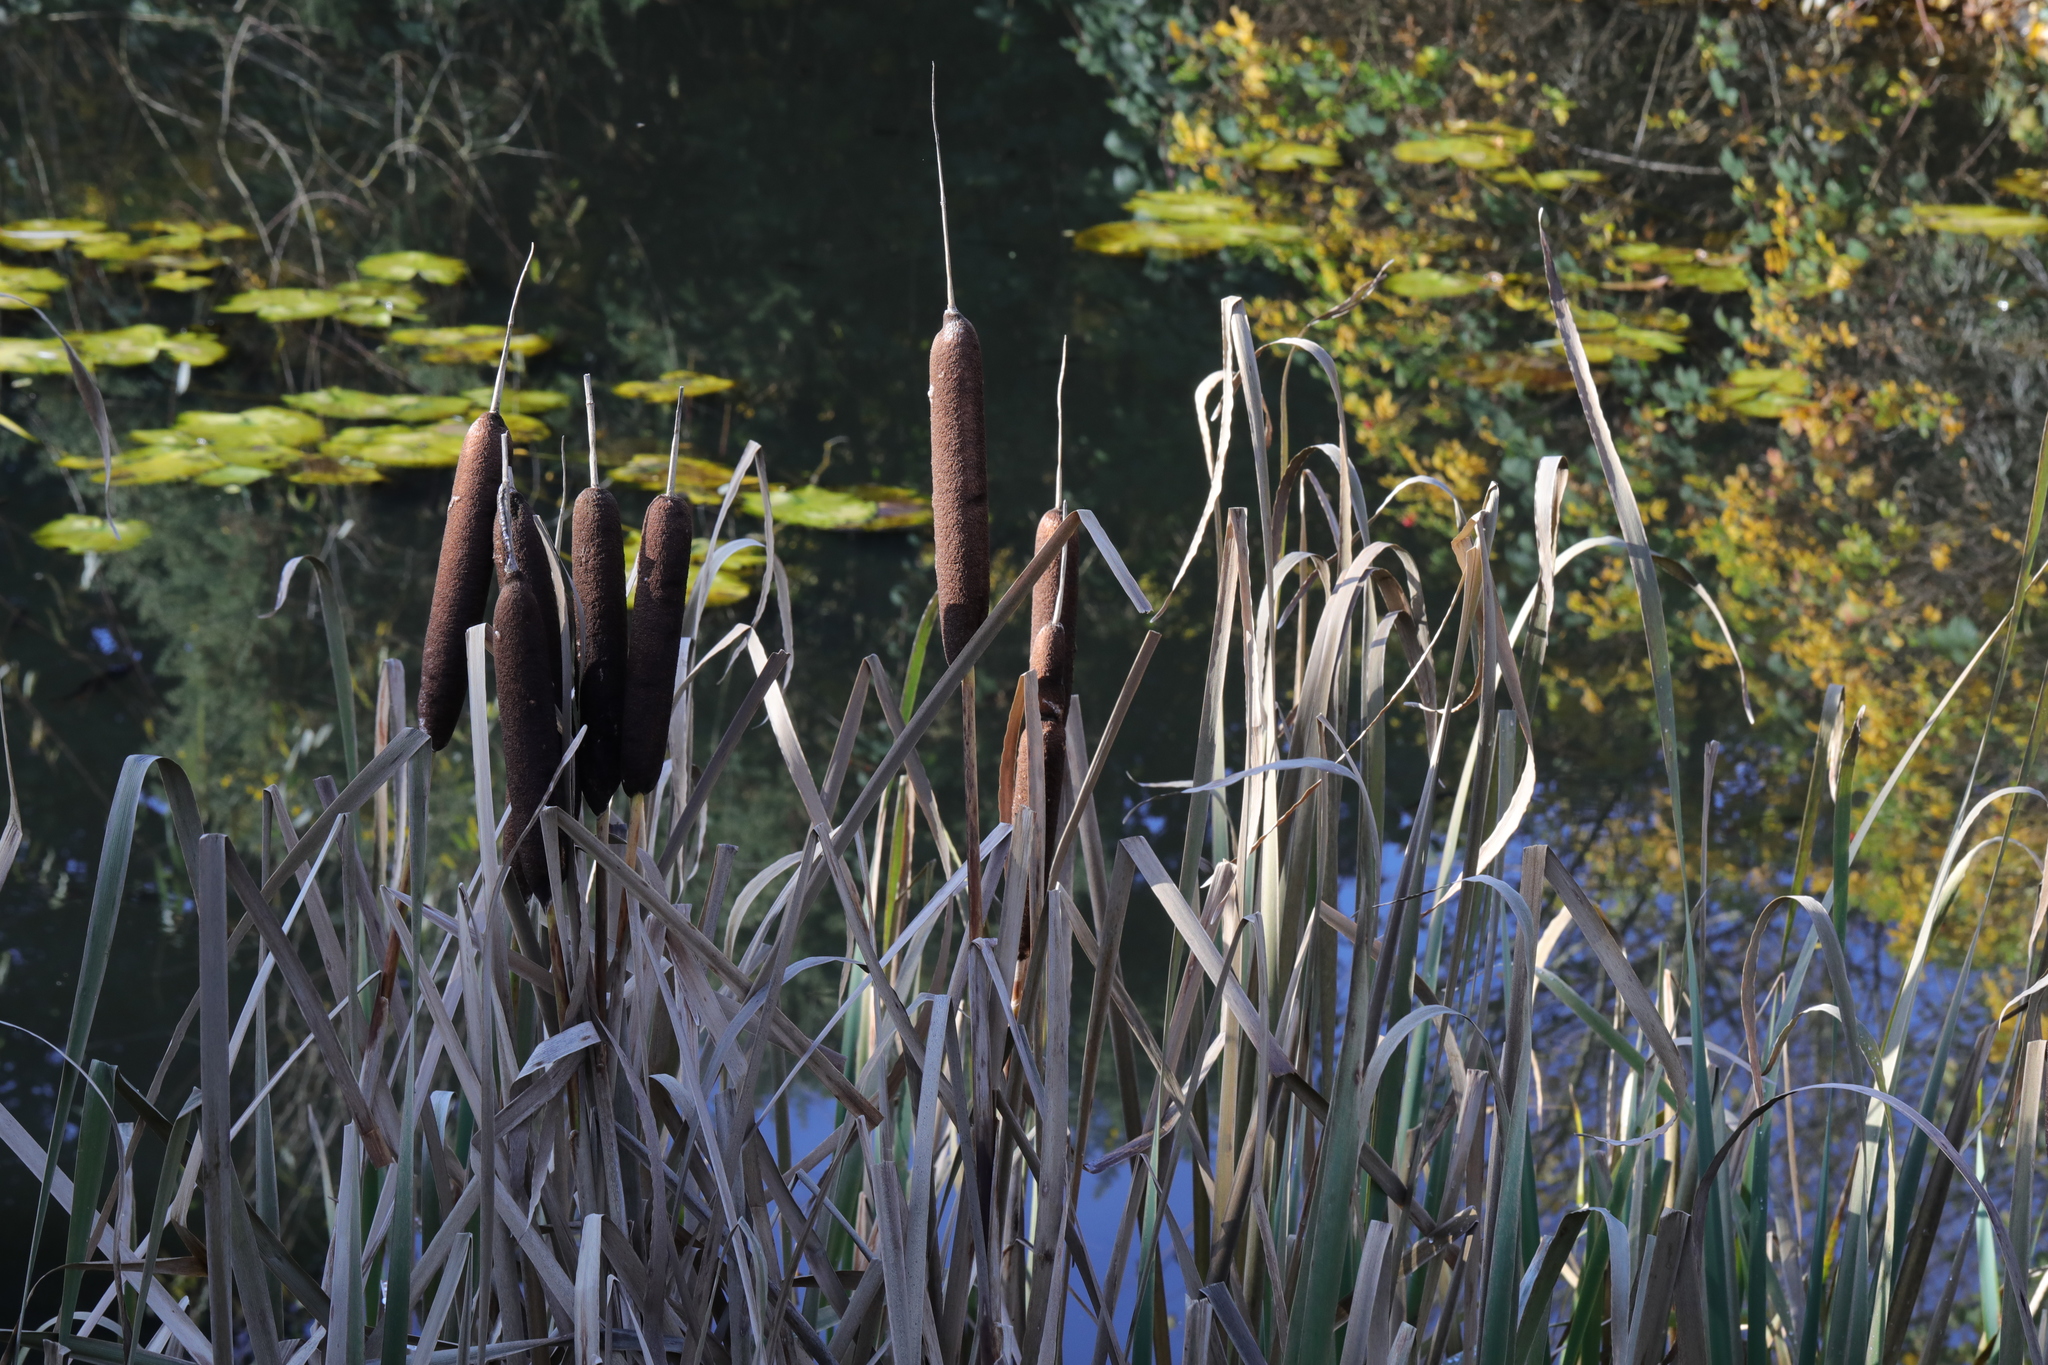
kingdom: Plantae
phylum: Tracheophyta
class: Liliopsida
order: Poales
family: Typhaceae
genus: Typha
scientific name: Typha latifolia
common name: Broadleaf cattail
